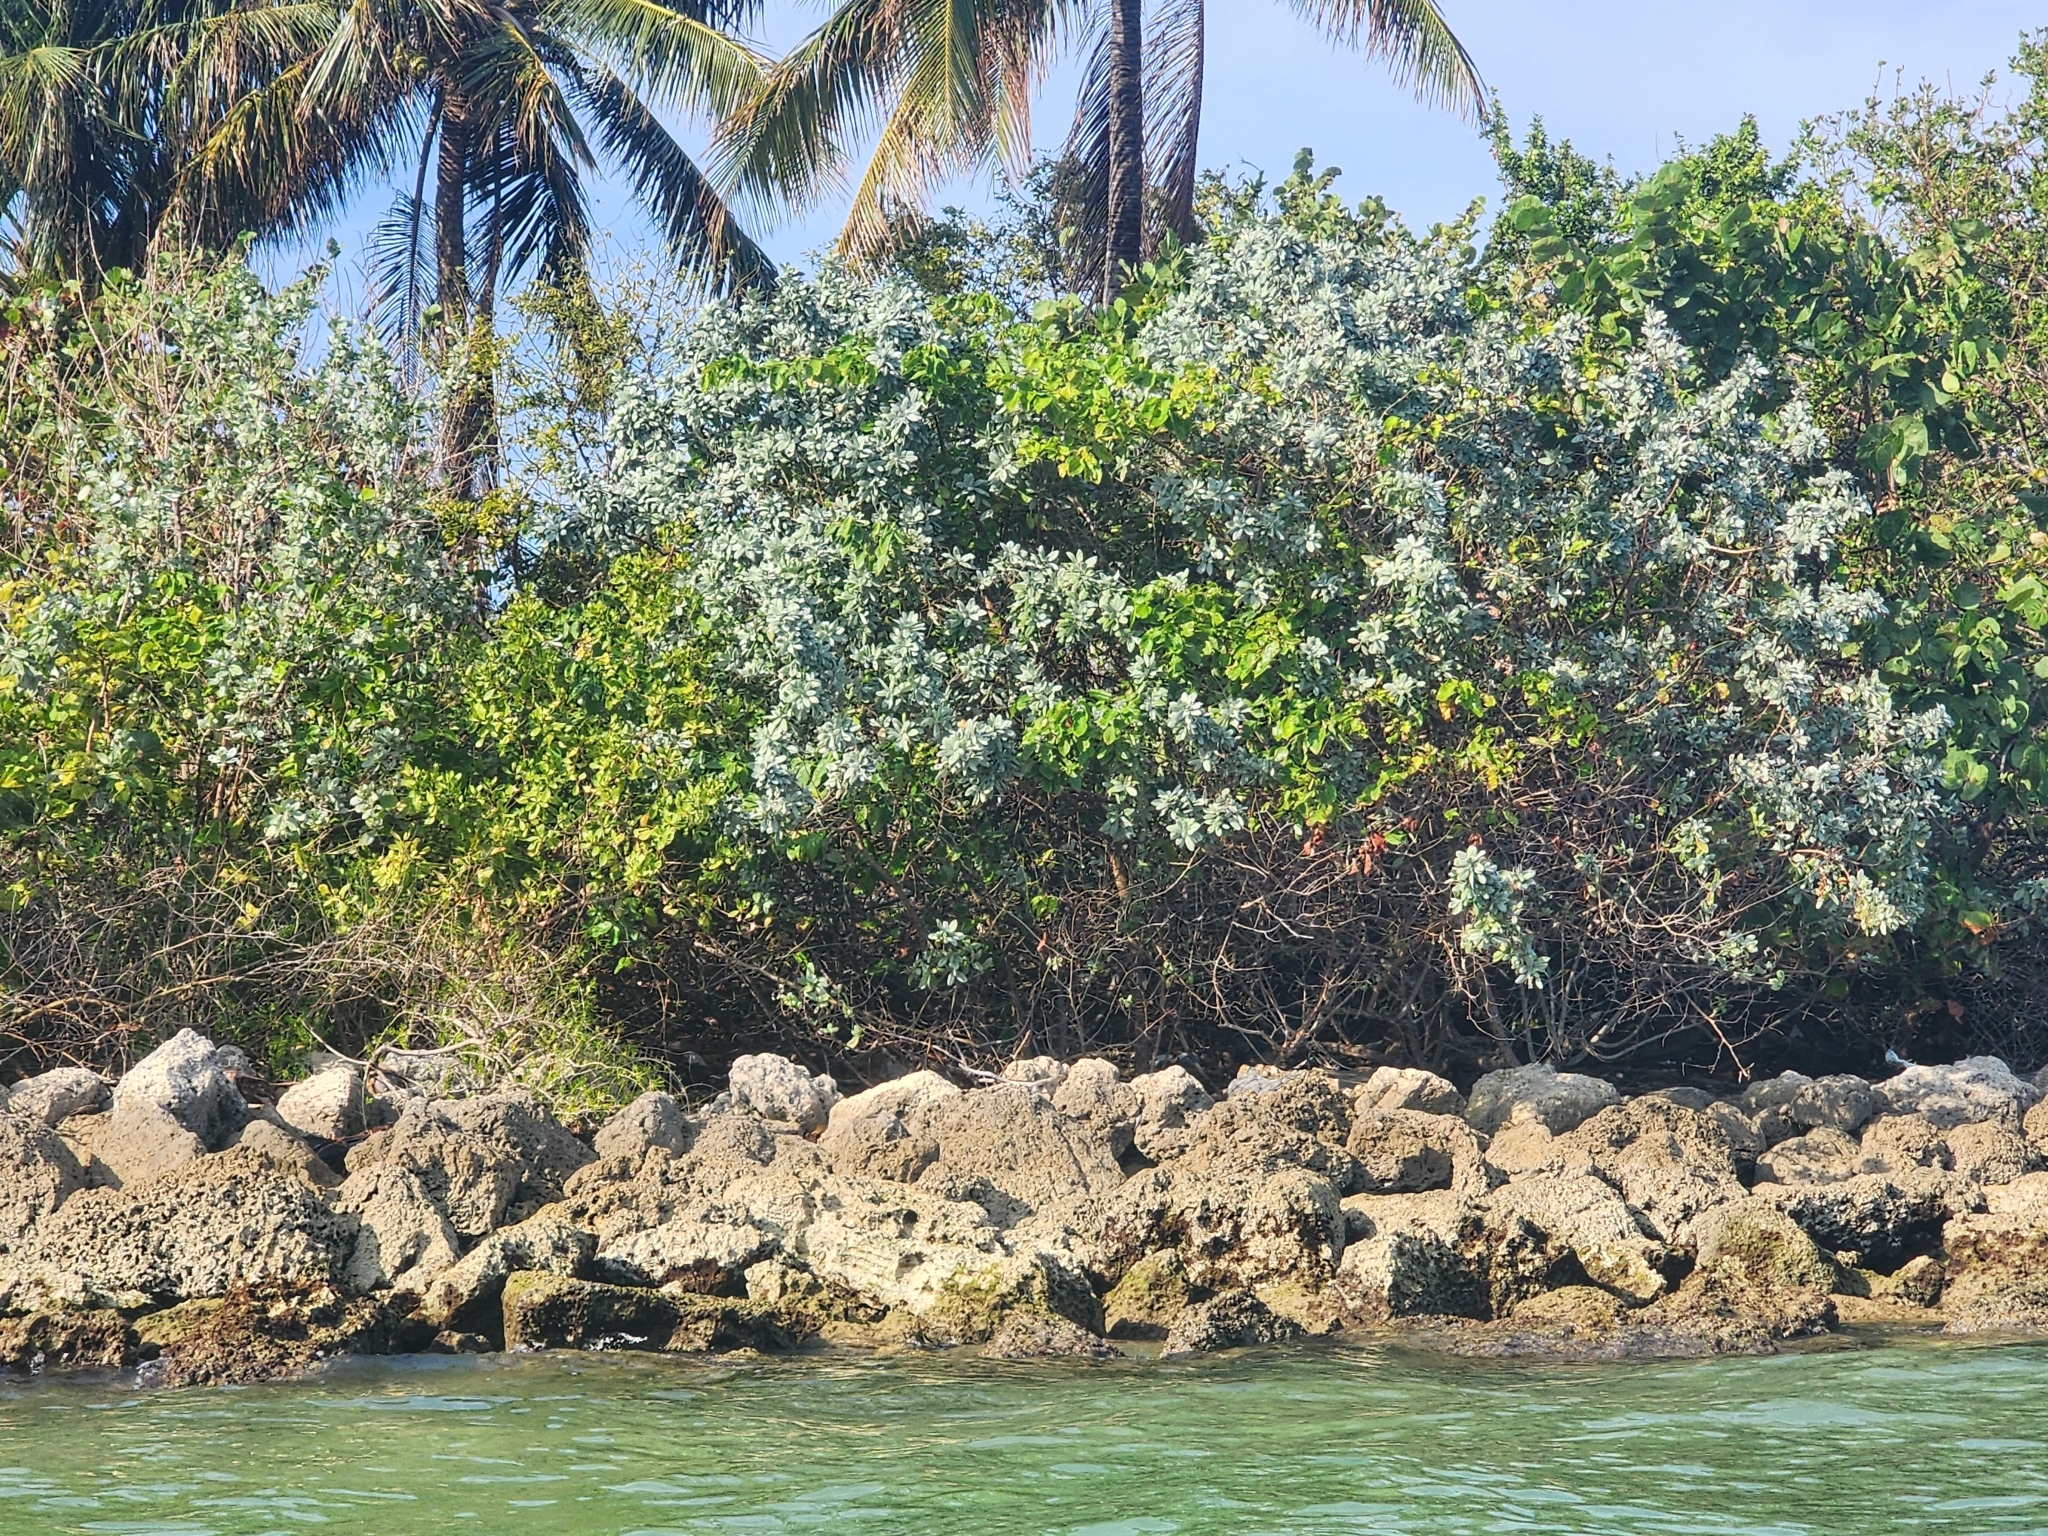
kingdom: Plantae
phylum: Tracheophyta
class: Magnoliopsida
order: Myrtales
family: Combretaceae
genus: Conocarpus
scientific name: Conocarpus erectus
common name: Button mangrove
